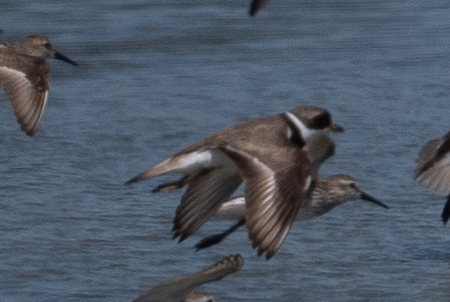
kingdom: Animalia
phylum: Chordata
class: Aves
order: Charadriiformes
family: Charadriidae
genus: Charadrius
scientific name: Charadrius semipalmatus
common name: Semipalmated plover
